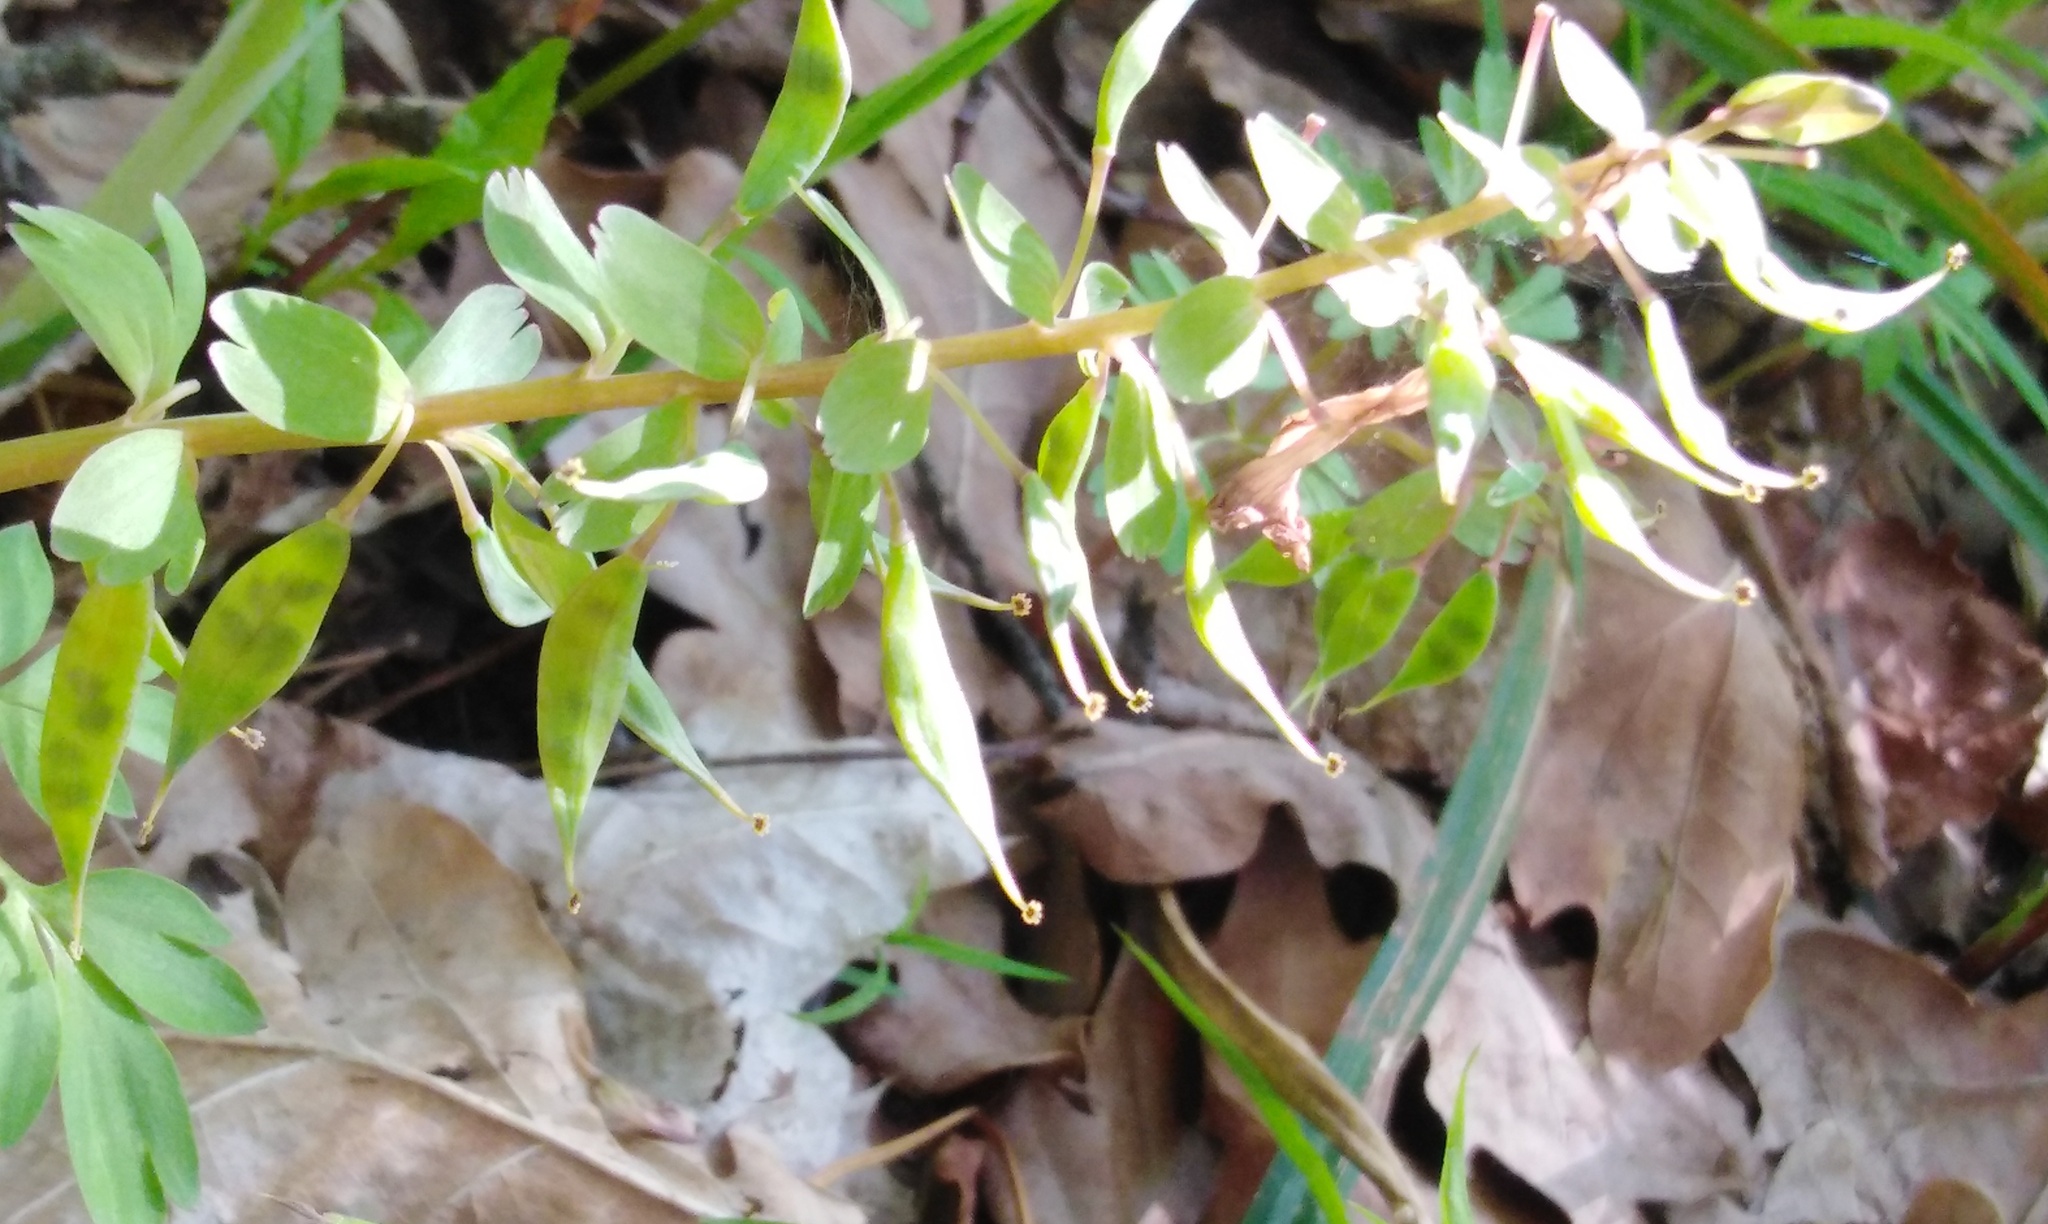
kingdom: Plantae
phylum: Tracheophyta
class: Magnoliopsida
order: Ranunculales
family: Papaveraceae
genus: Corydalis
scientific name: Corydalis solida
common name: Bird-in-a-bush
